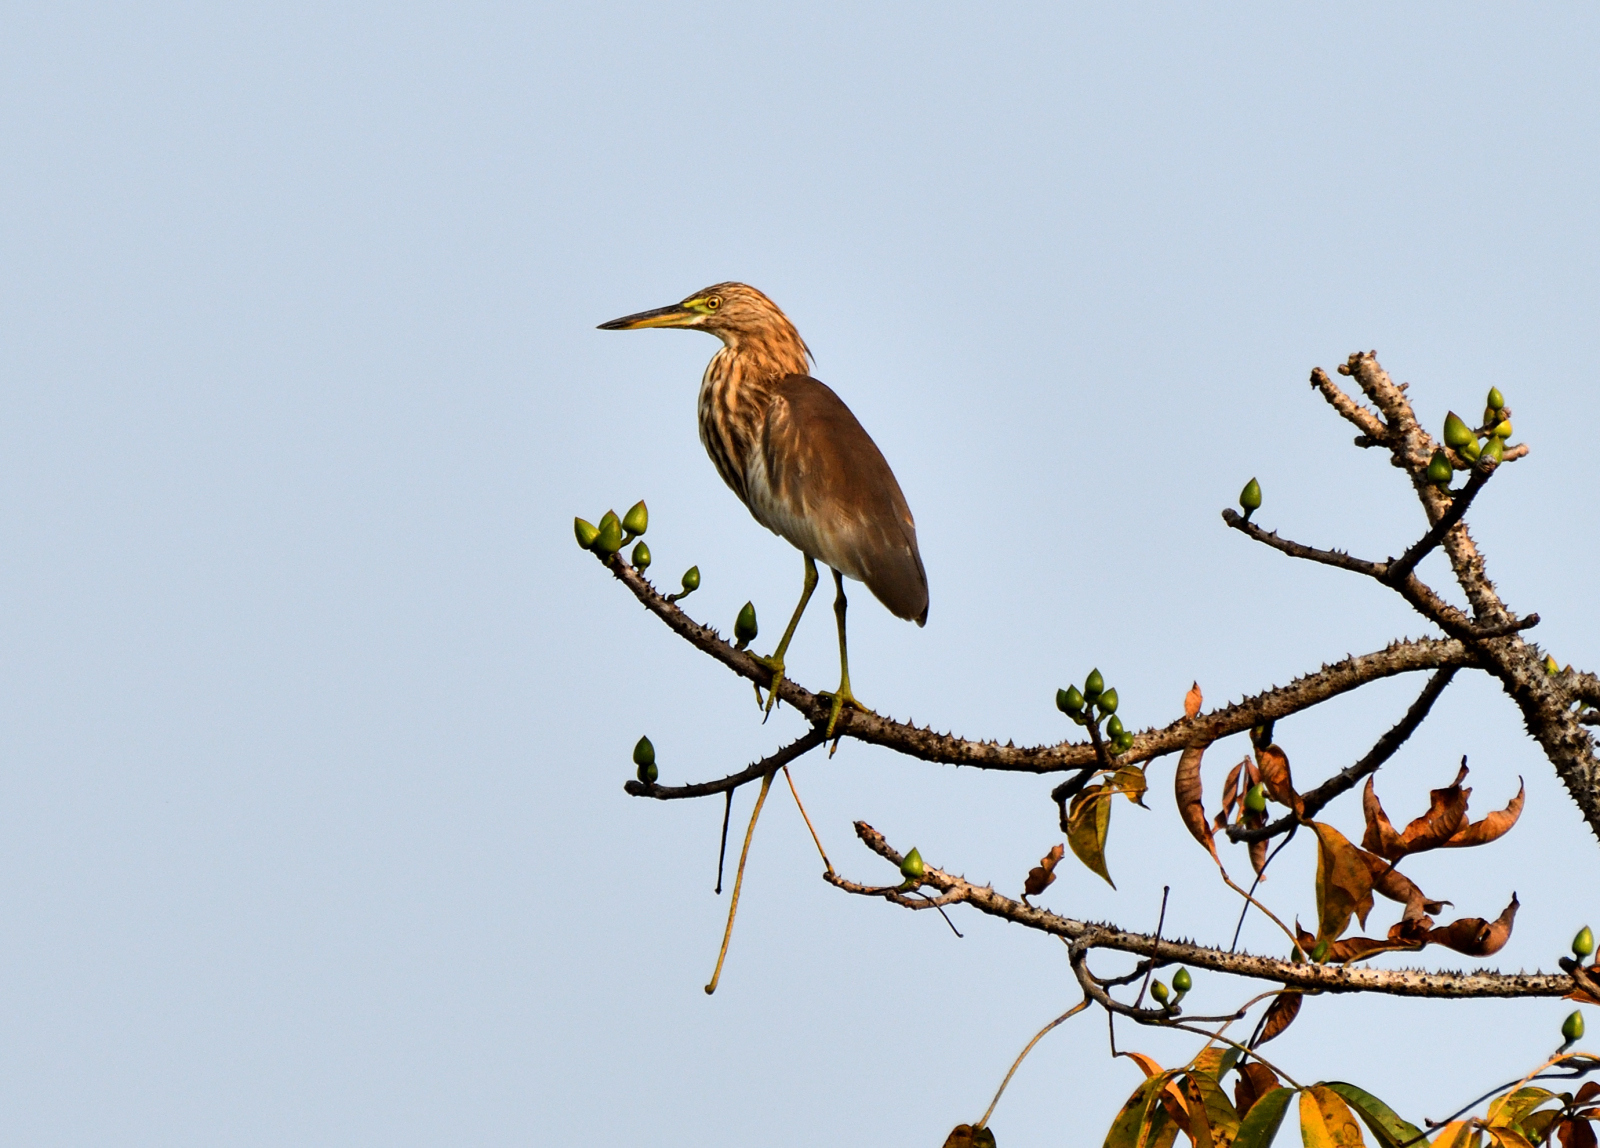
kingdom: Animalia
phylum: Chordata
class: Aves
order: Pelecaniformes
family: Ardeidae
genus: Ardeola
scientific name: Ardeola grayii
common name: Indian pond heron
